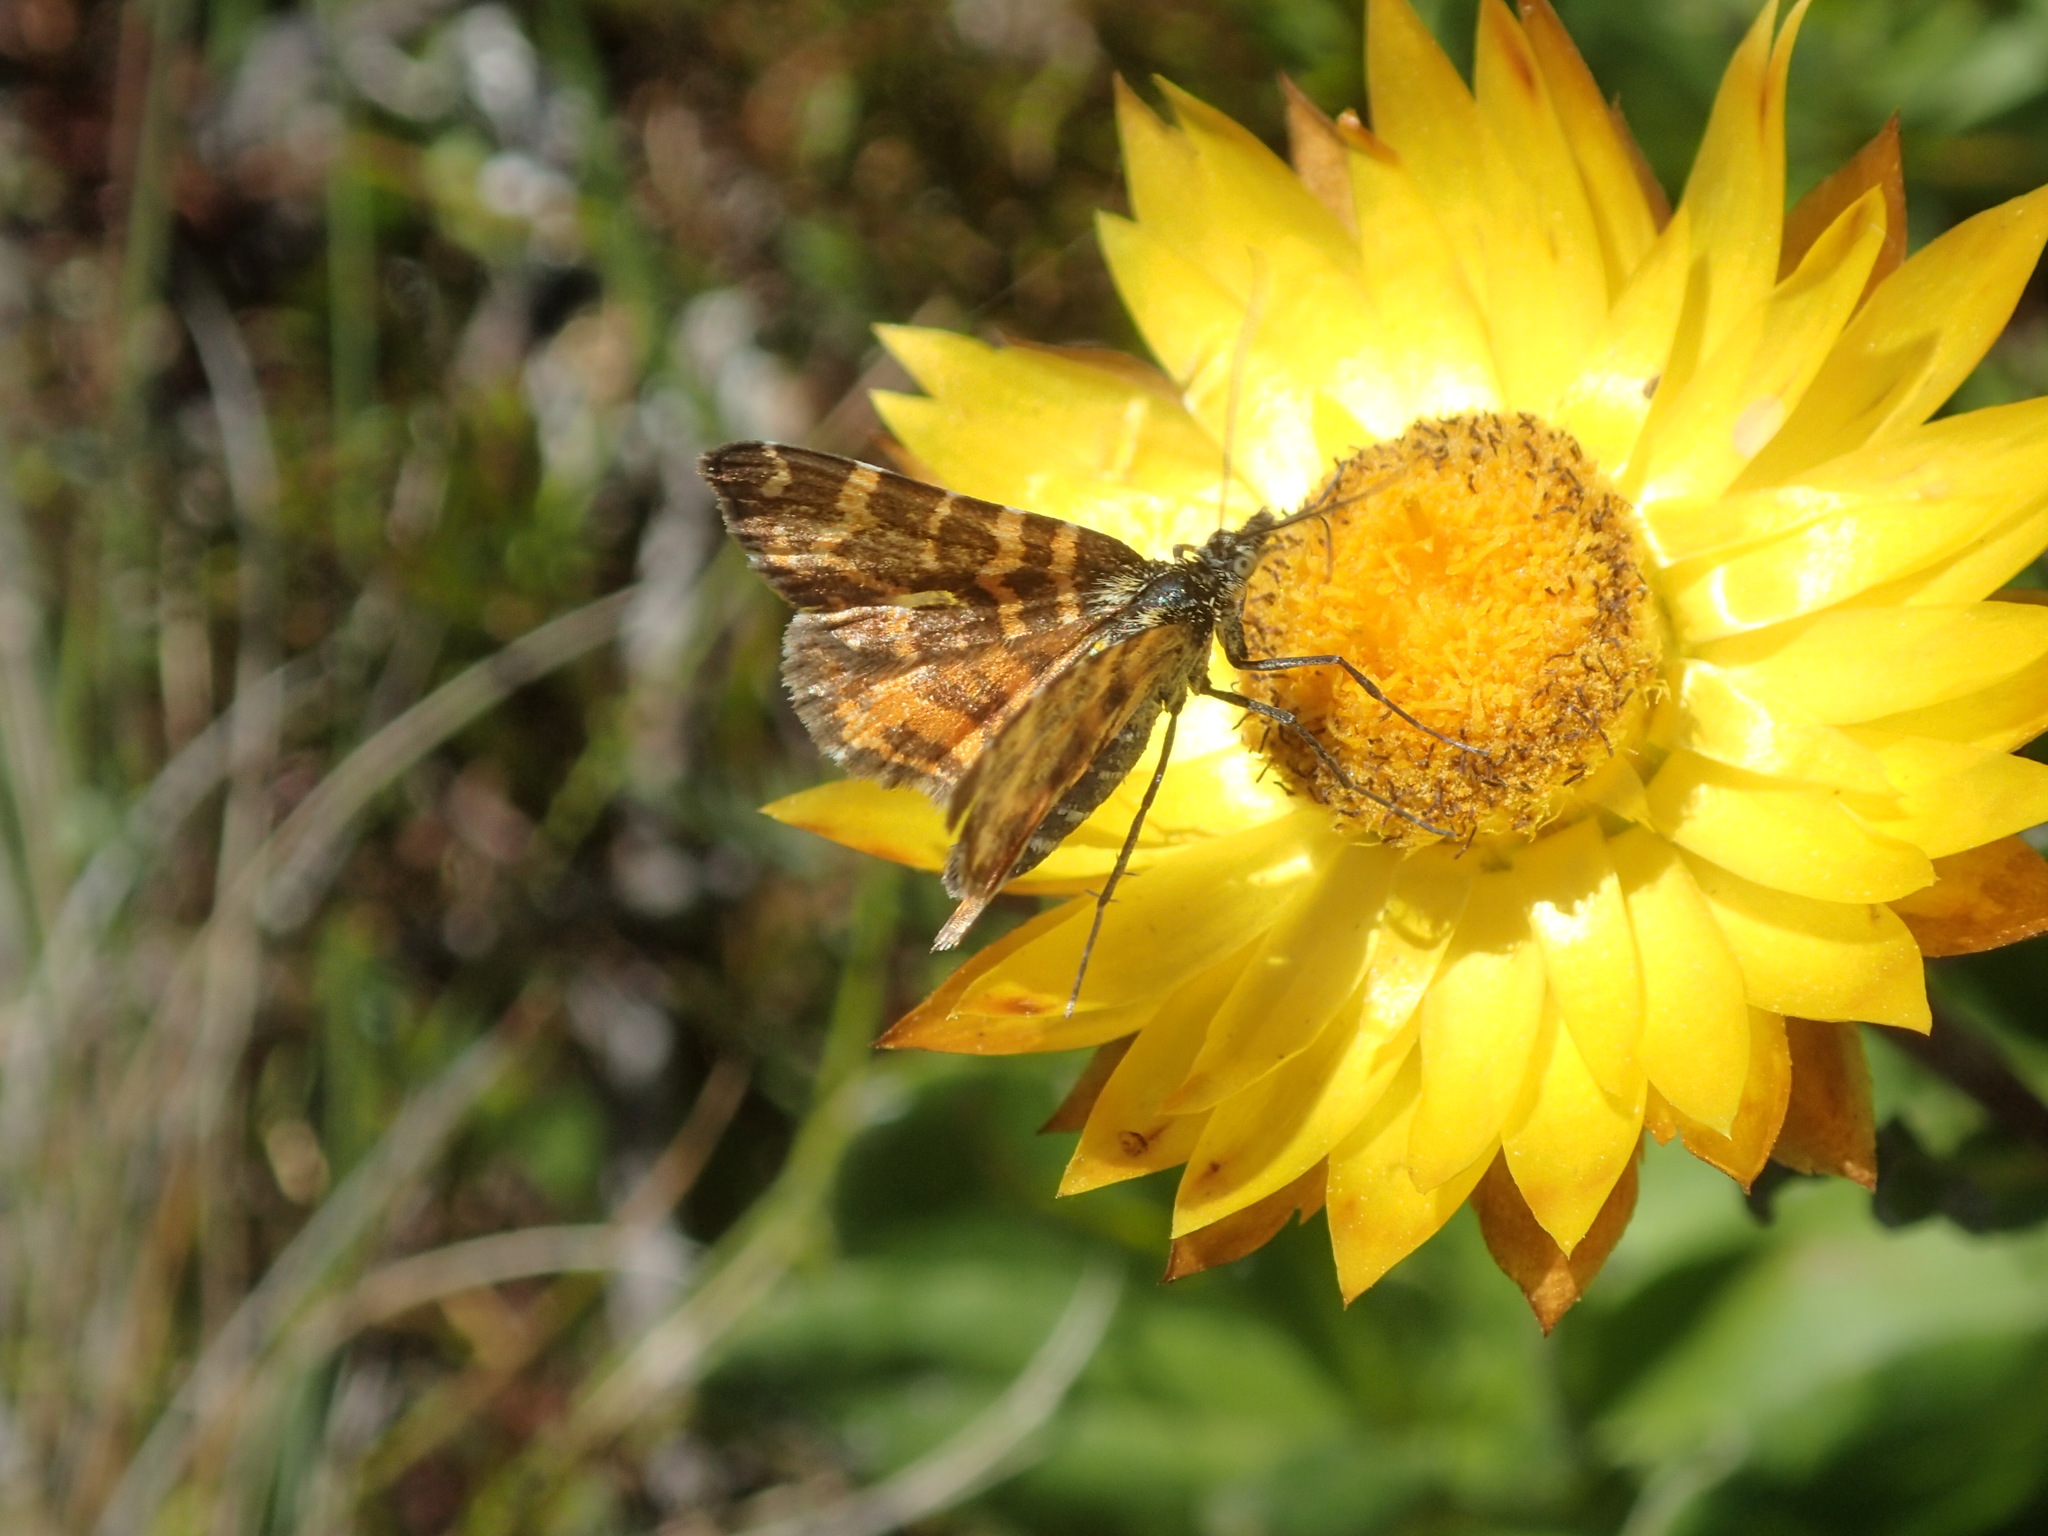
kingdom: Animalia
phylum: Arthropoda
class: Insecta
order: Lepidoptera
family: Geometridae
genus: Chrysolarentia
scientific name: Chrysolarentia chrysocyma
